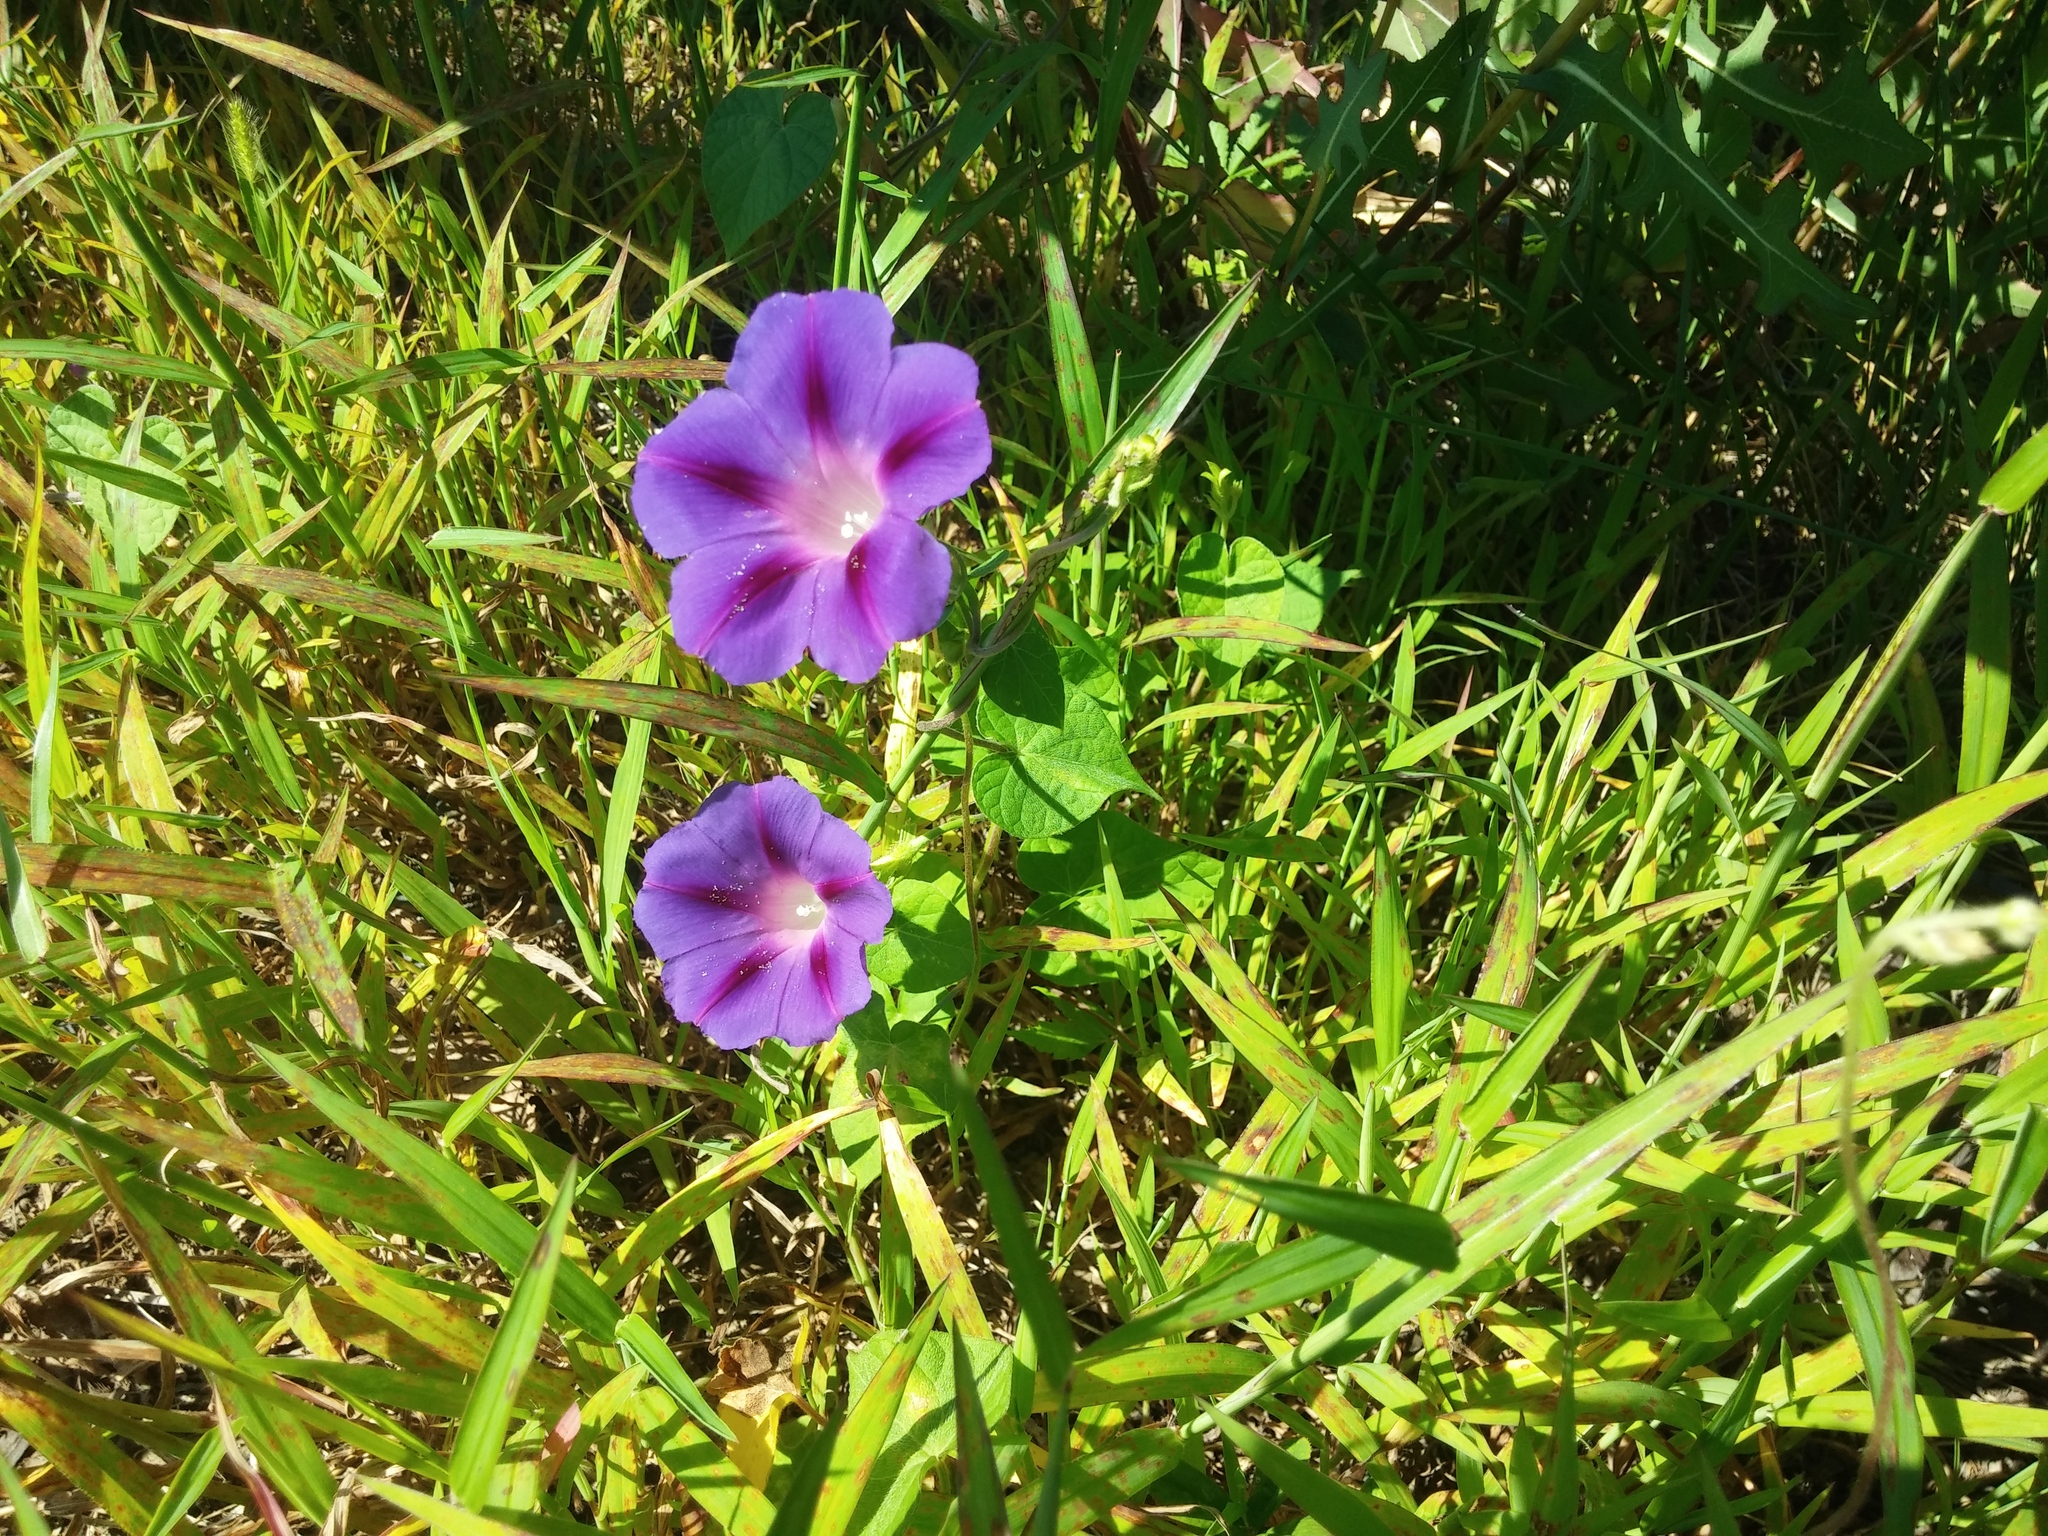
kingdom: Plantae
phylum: Tracheophyta
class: Magnoliopsida
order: Solanales
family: Convolvulaceae
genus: Ipomoea
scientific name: Ipomoea purpurea
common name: Common morning-glory
